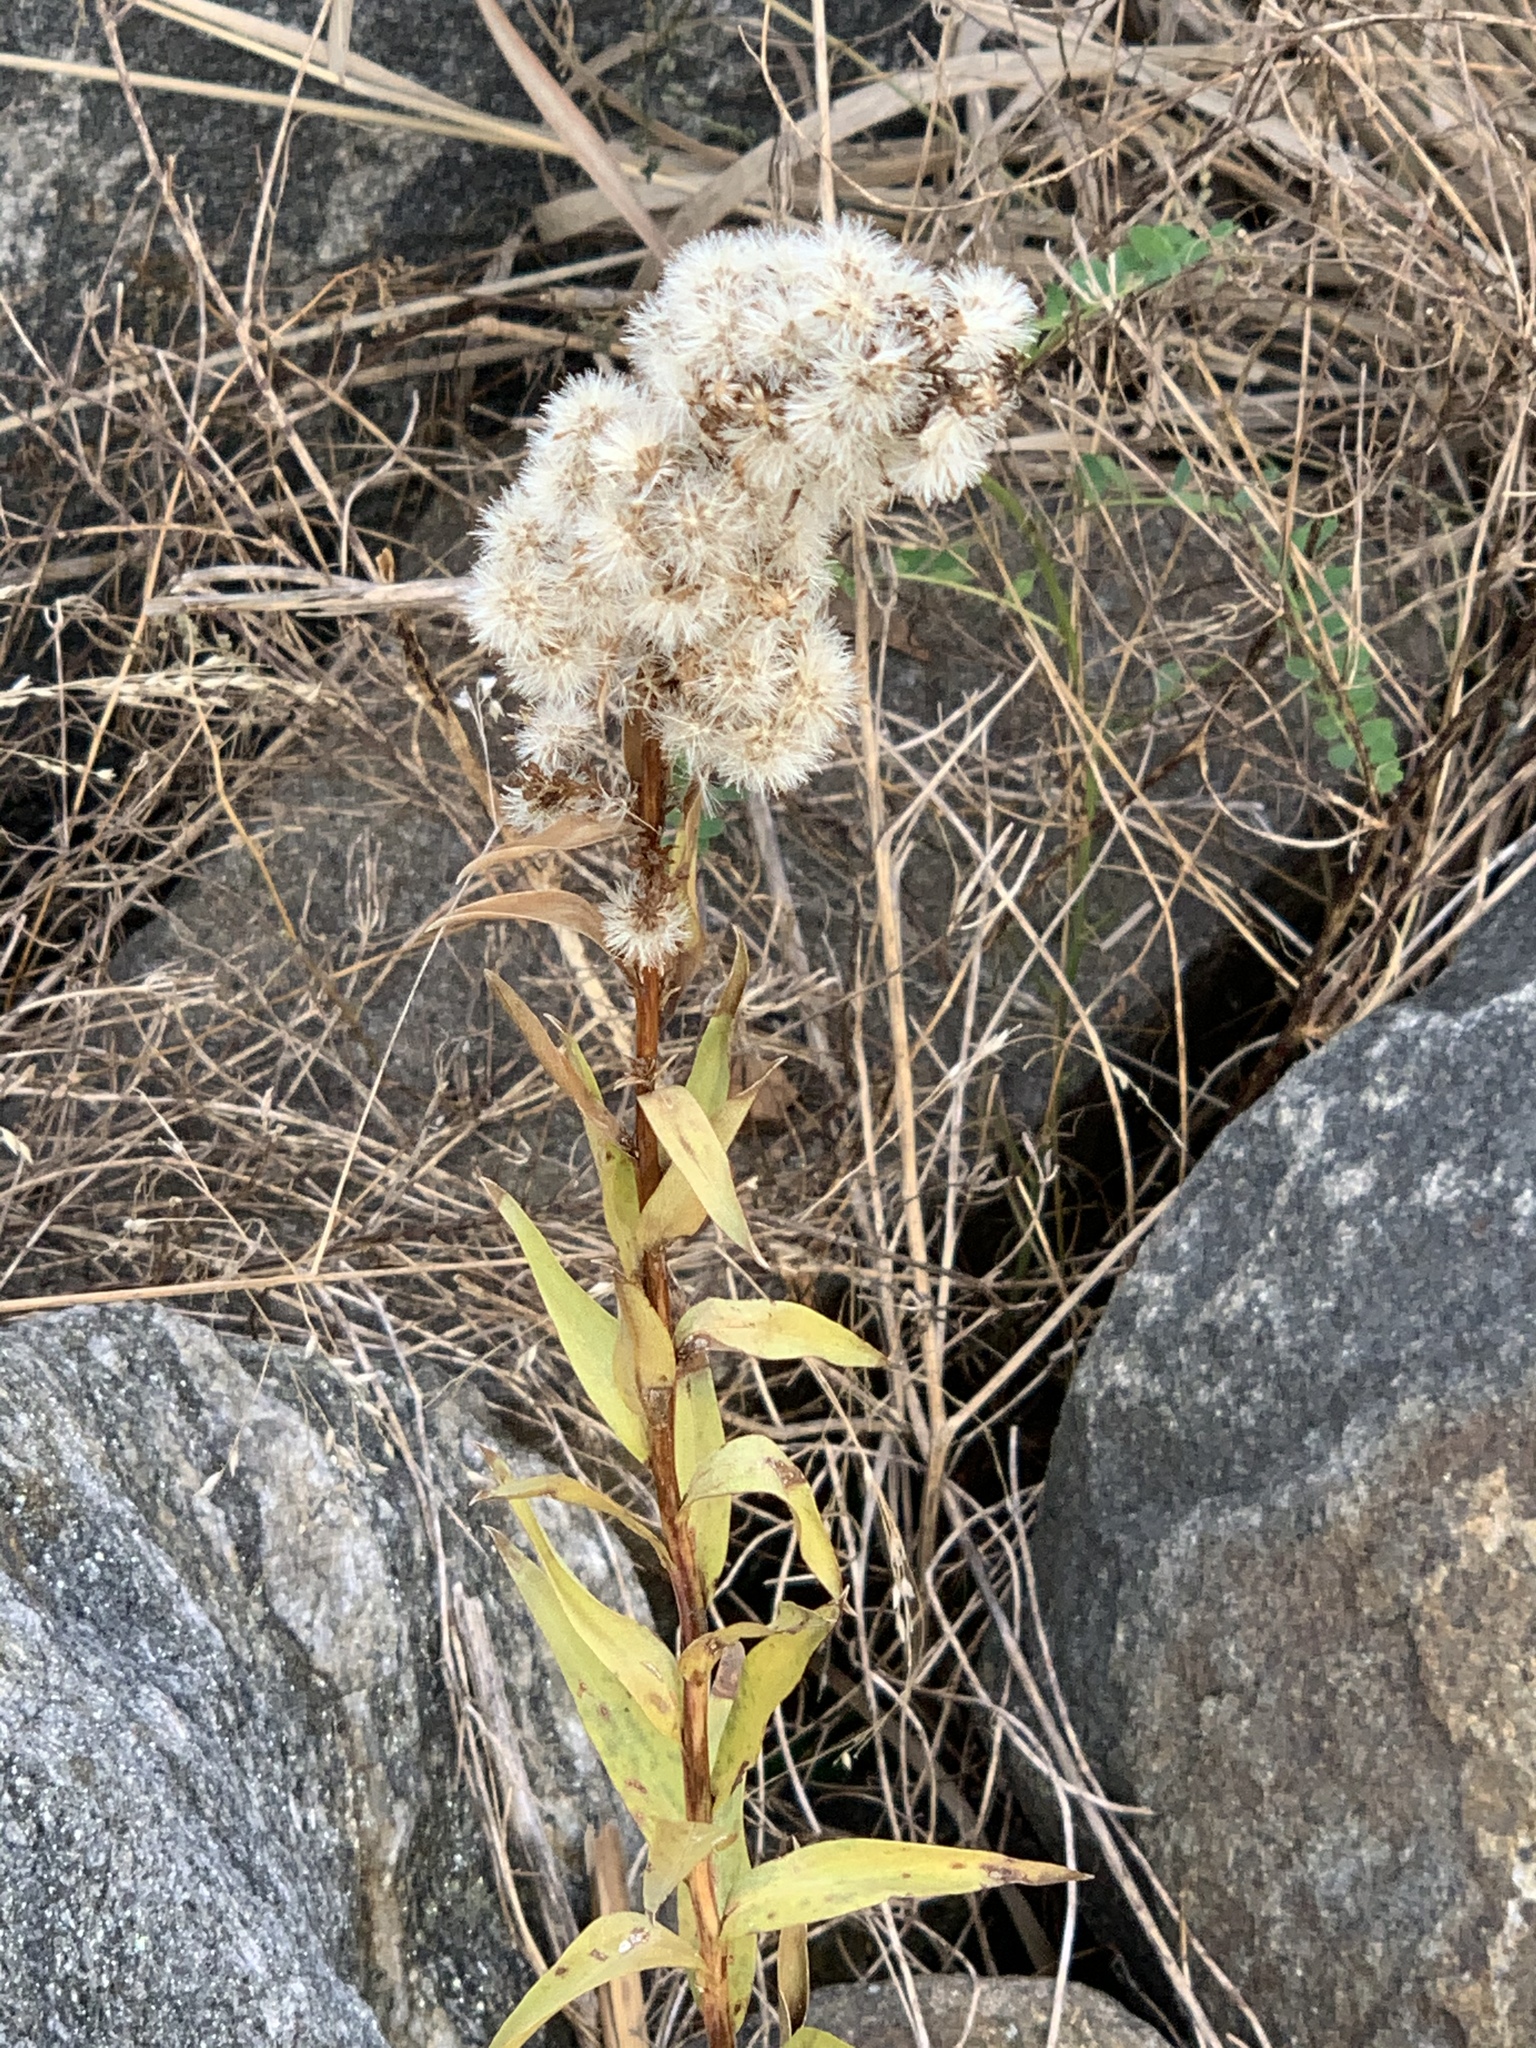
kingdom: Plantae
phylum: Tracheophyta
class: Magnoliopsida
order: Asterales
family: Asteraceae
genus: Solidago
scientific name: Solidago sempervirens
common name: Salt-marsh goldenrod
